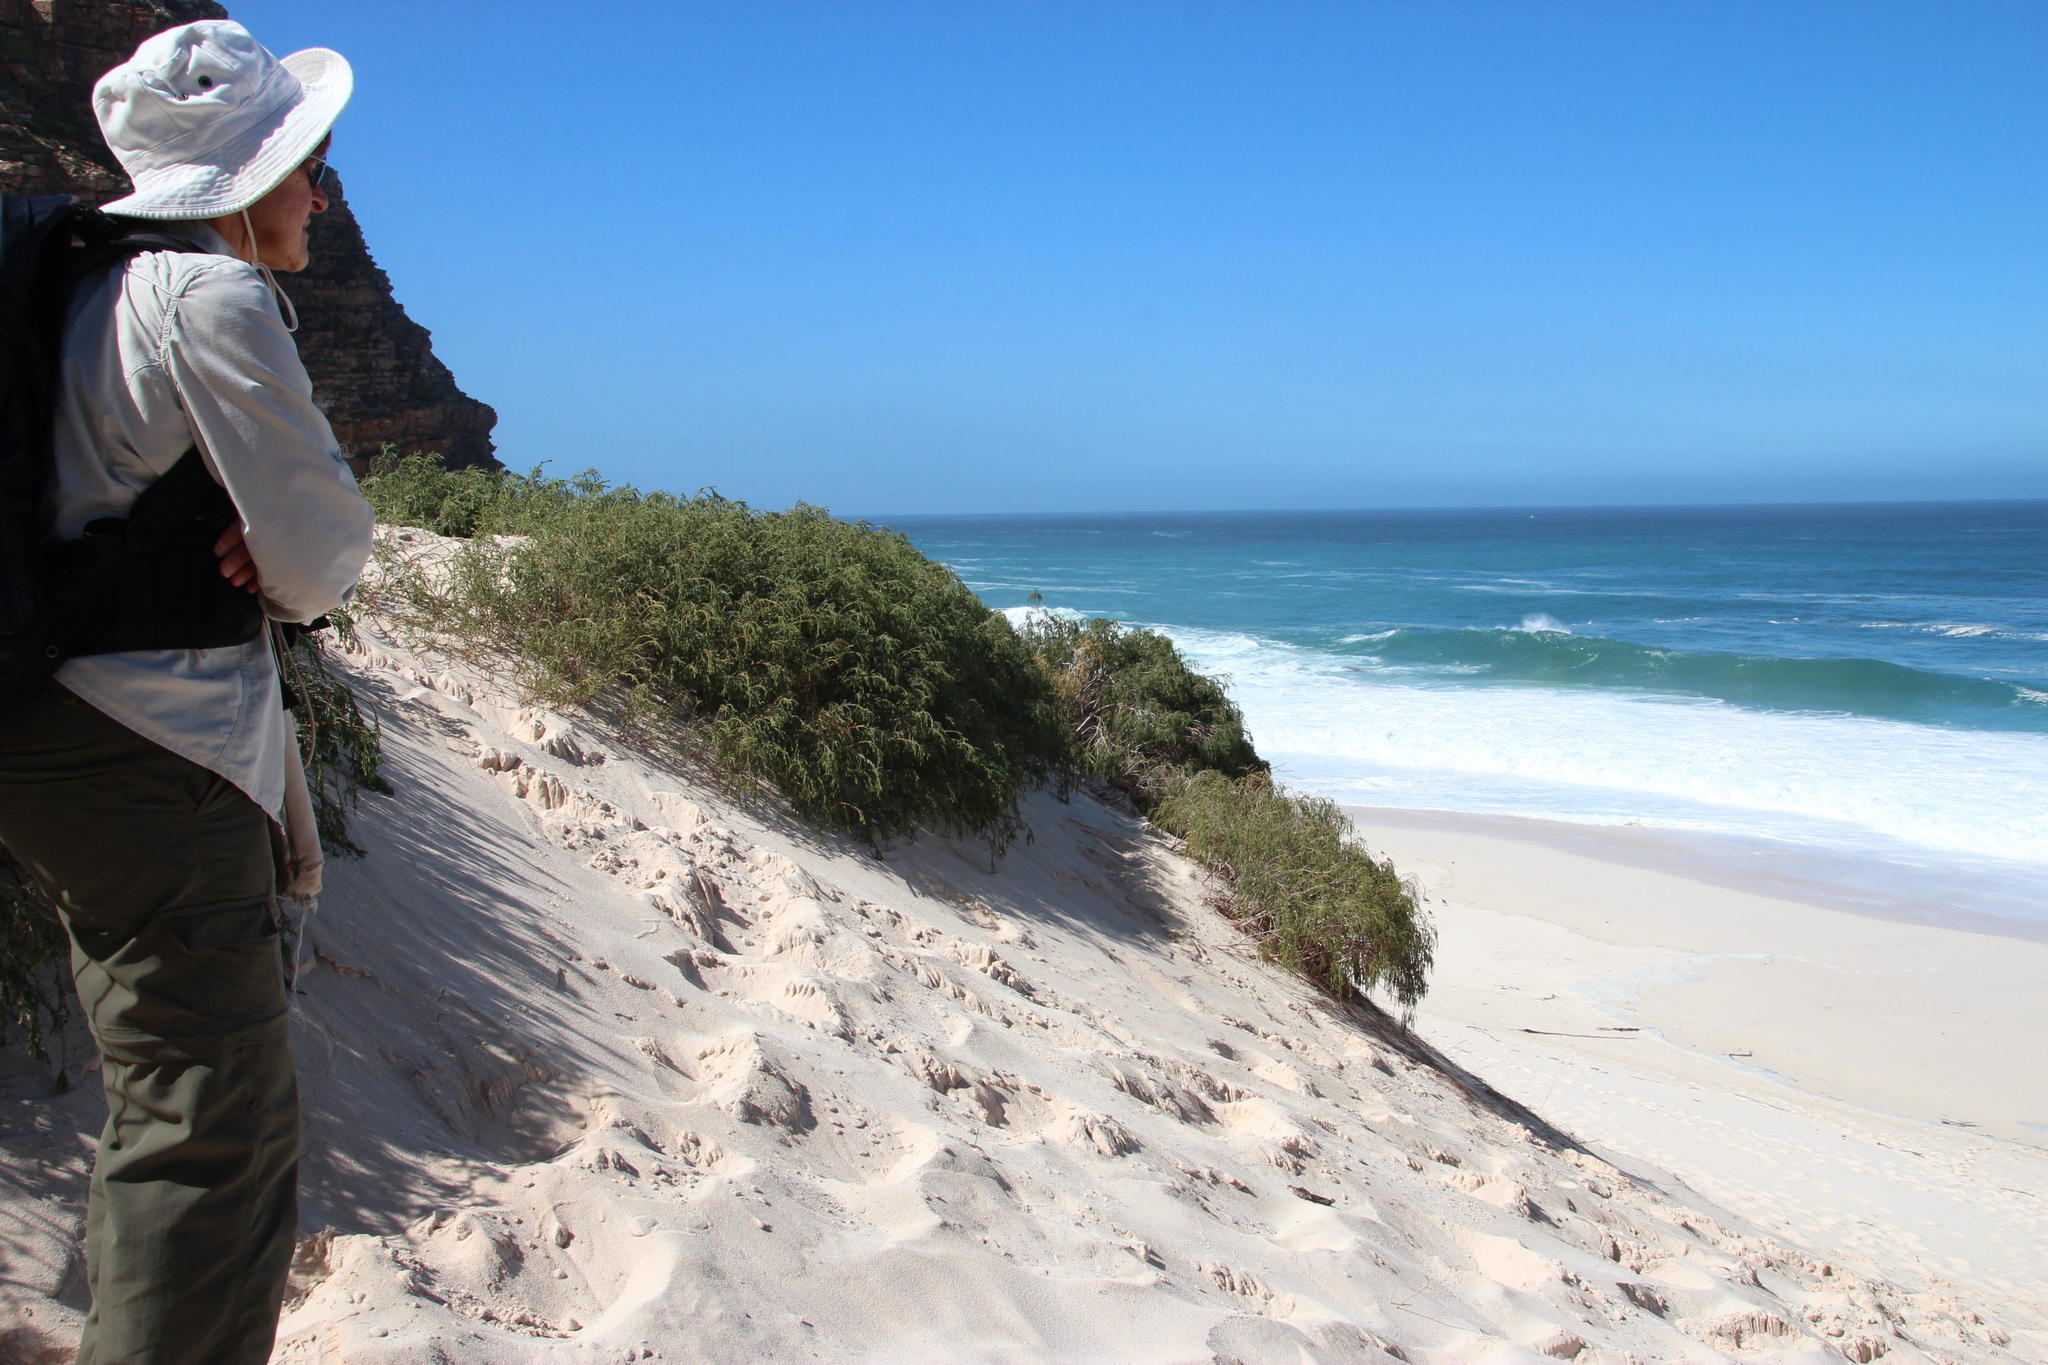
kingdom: Plantae
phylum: Tracheophyta
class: Magnoliopsida
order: Malvales
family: Thymelaeaceae
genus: Passerina
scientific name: Passerina ericoides
